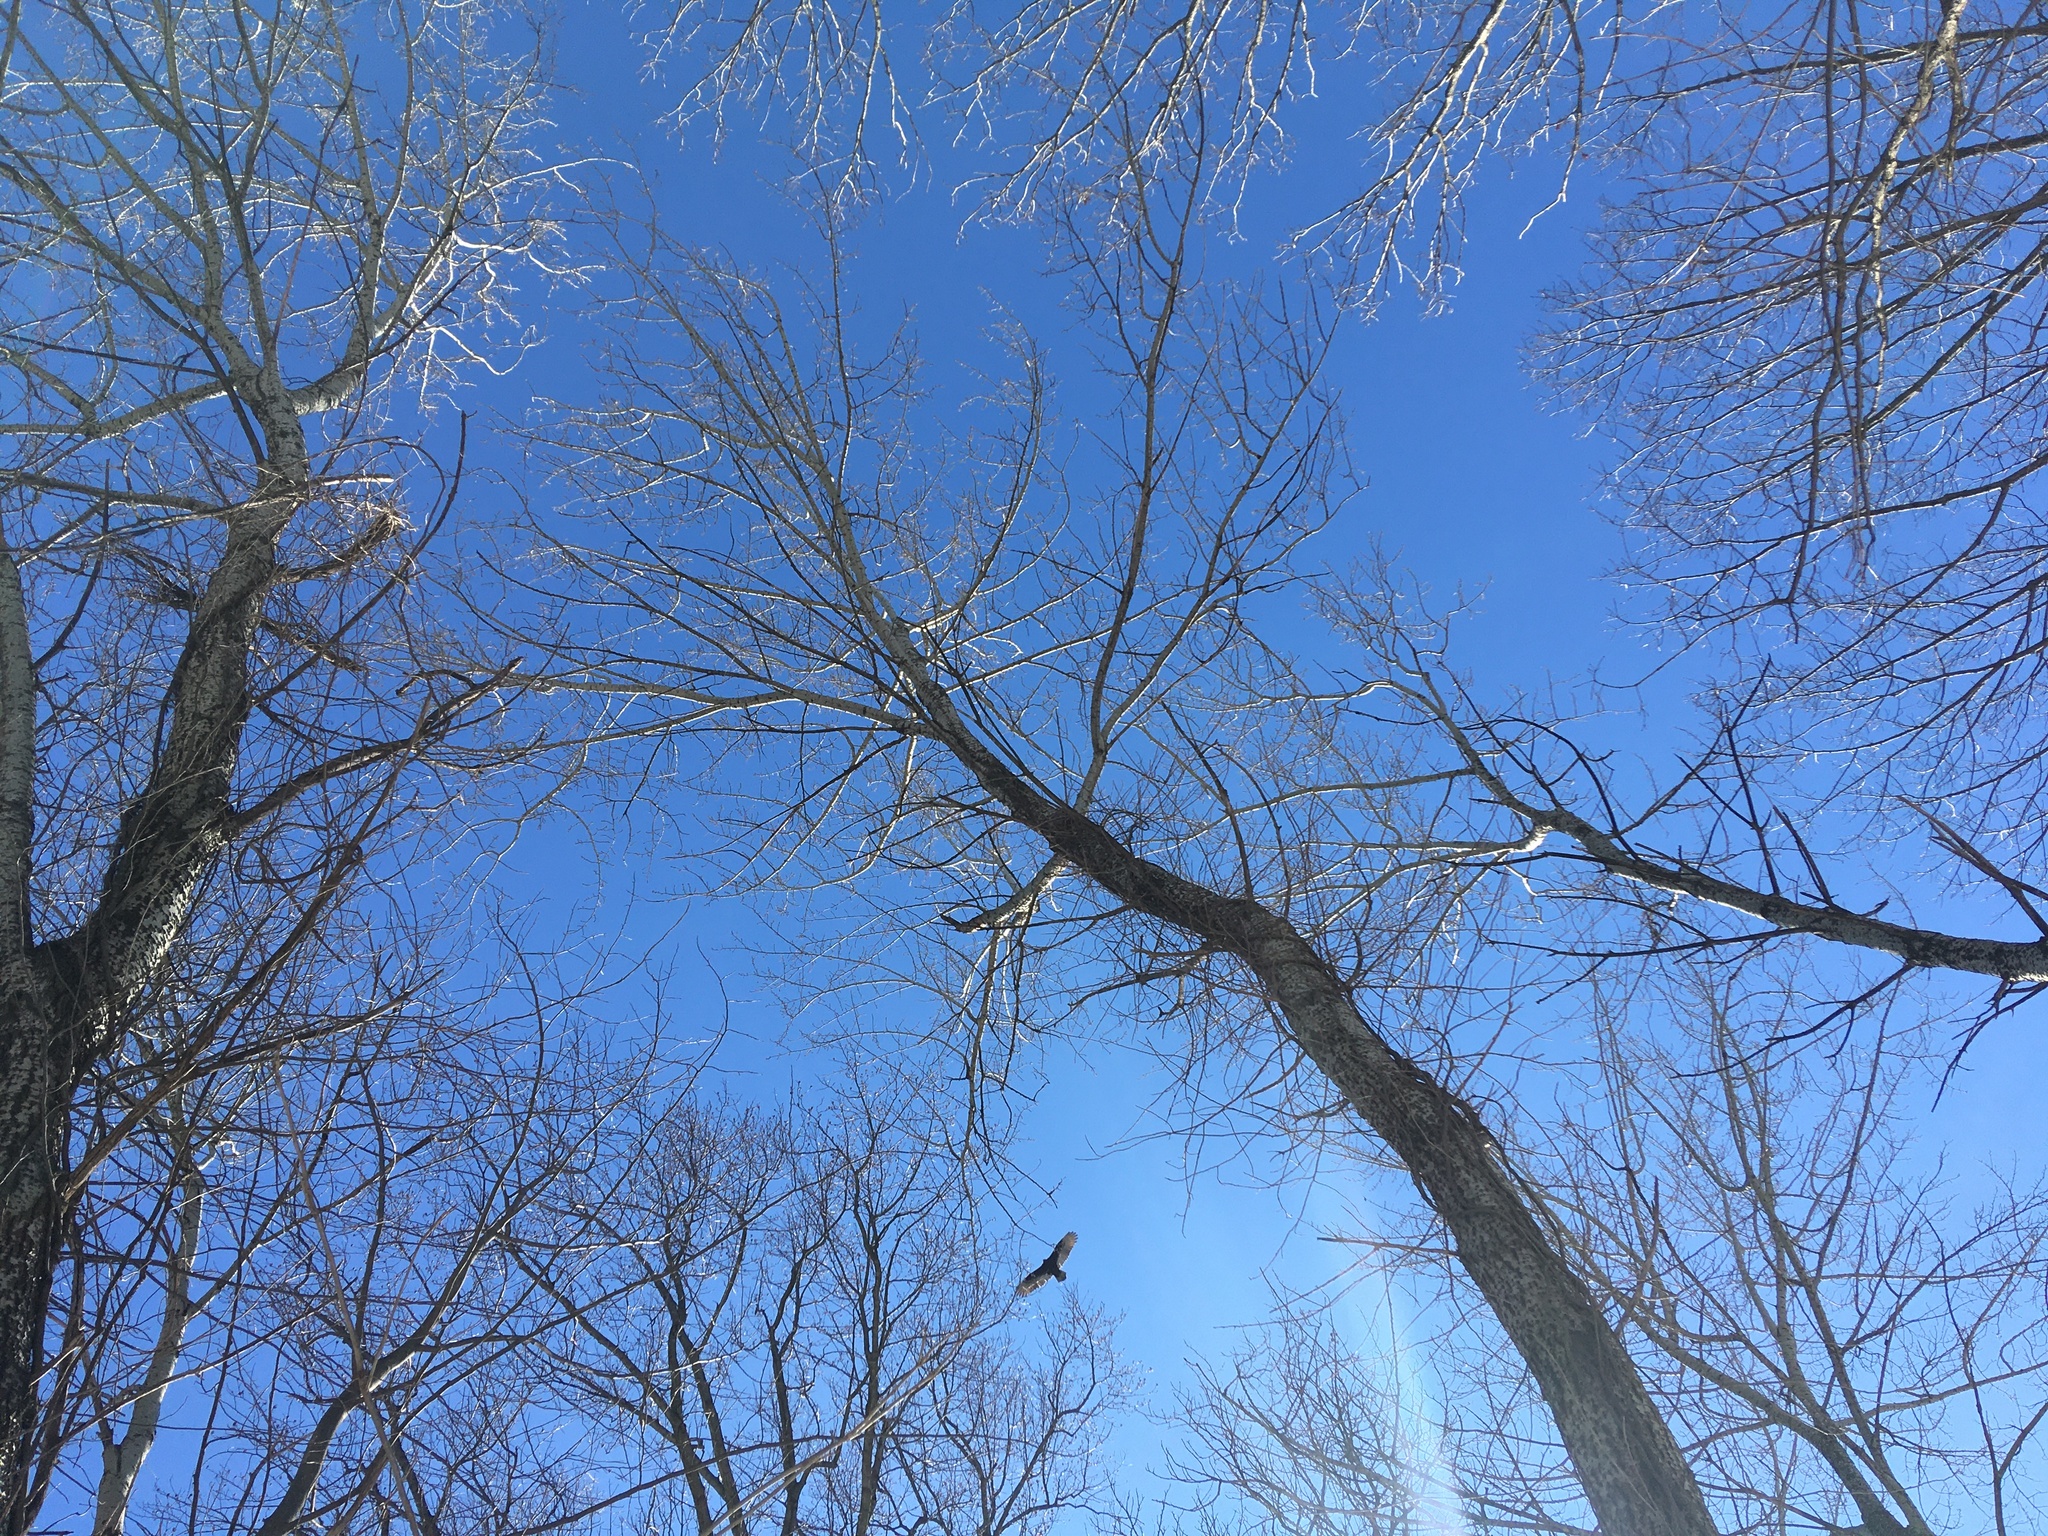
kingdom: Animalia
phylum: Chordata
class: Aves
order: Accipitriformes
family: Cathartidae
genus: Cathartes
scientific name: Cathartes aura
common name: Turkey vulture
